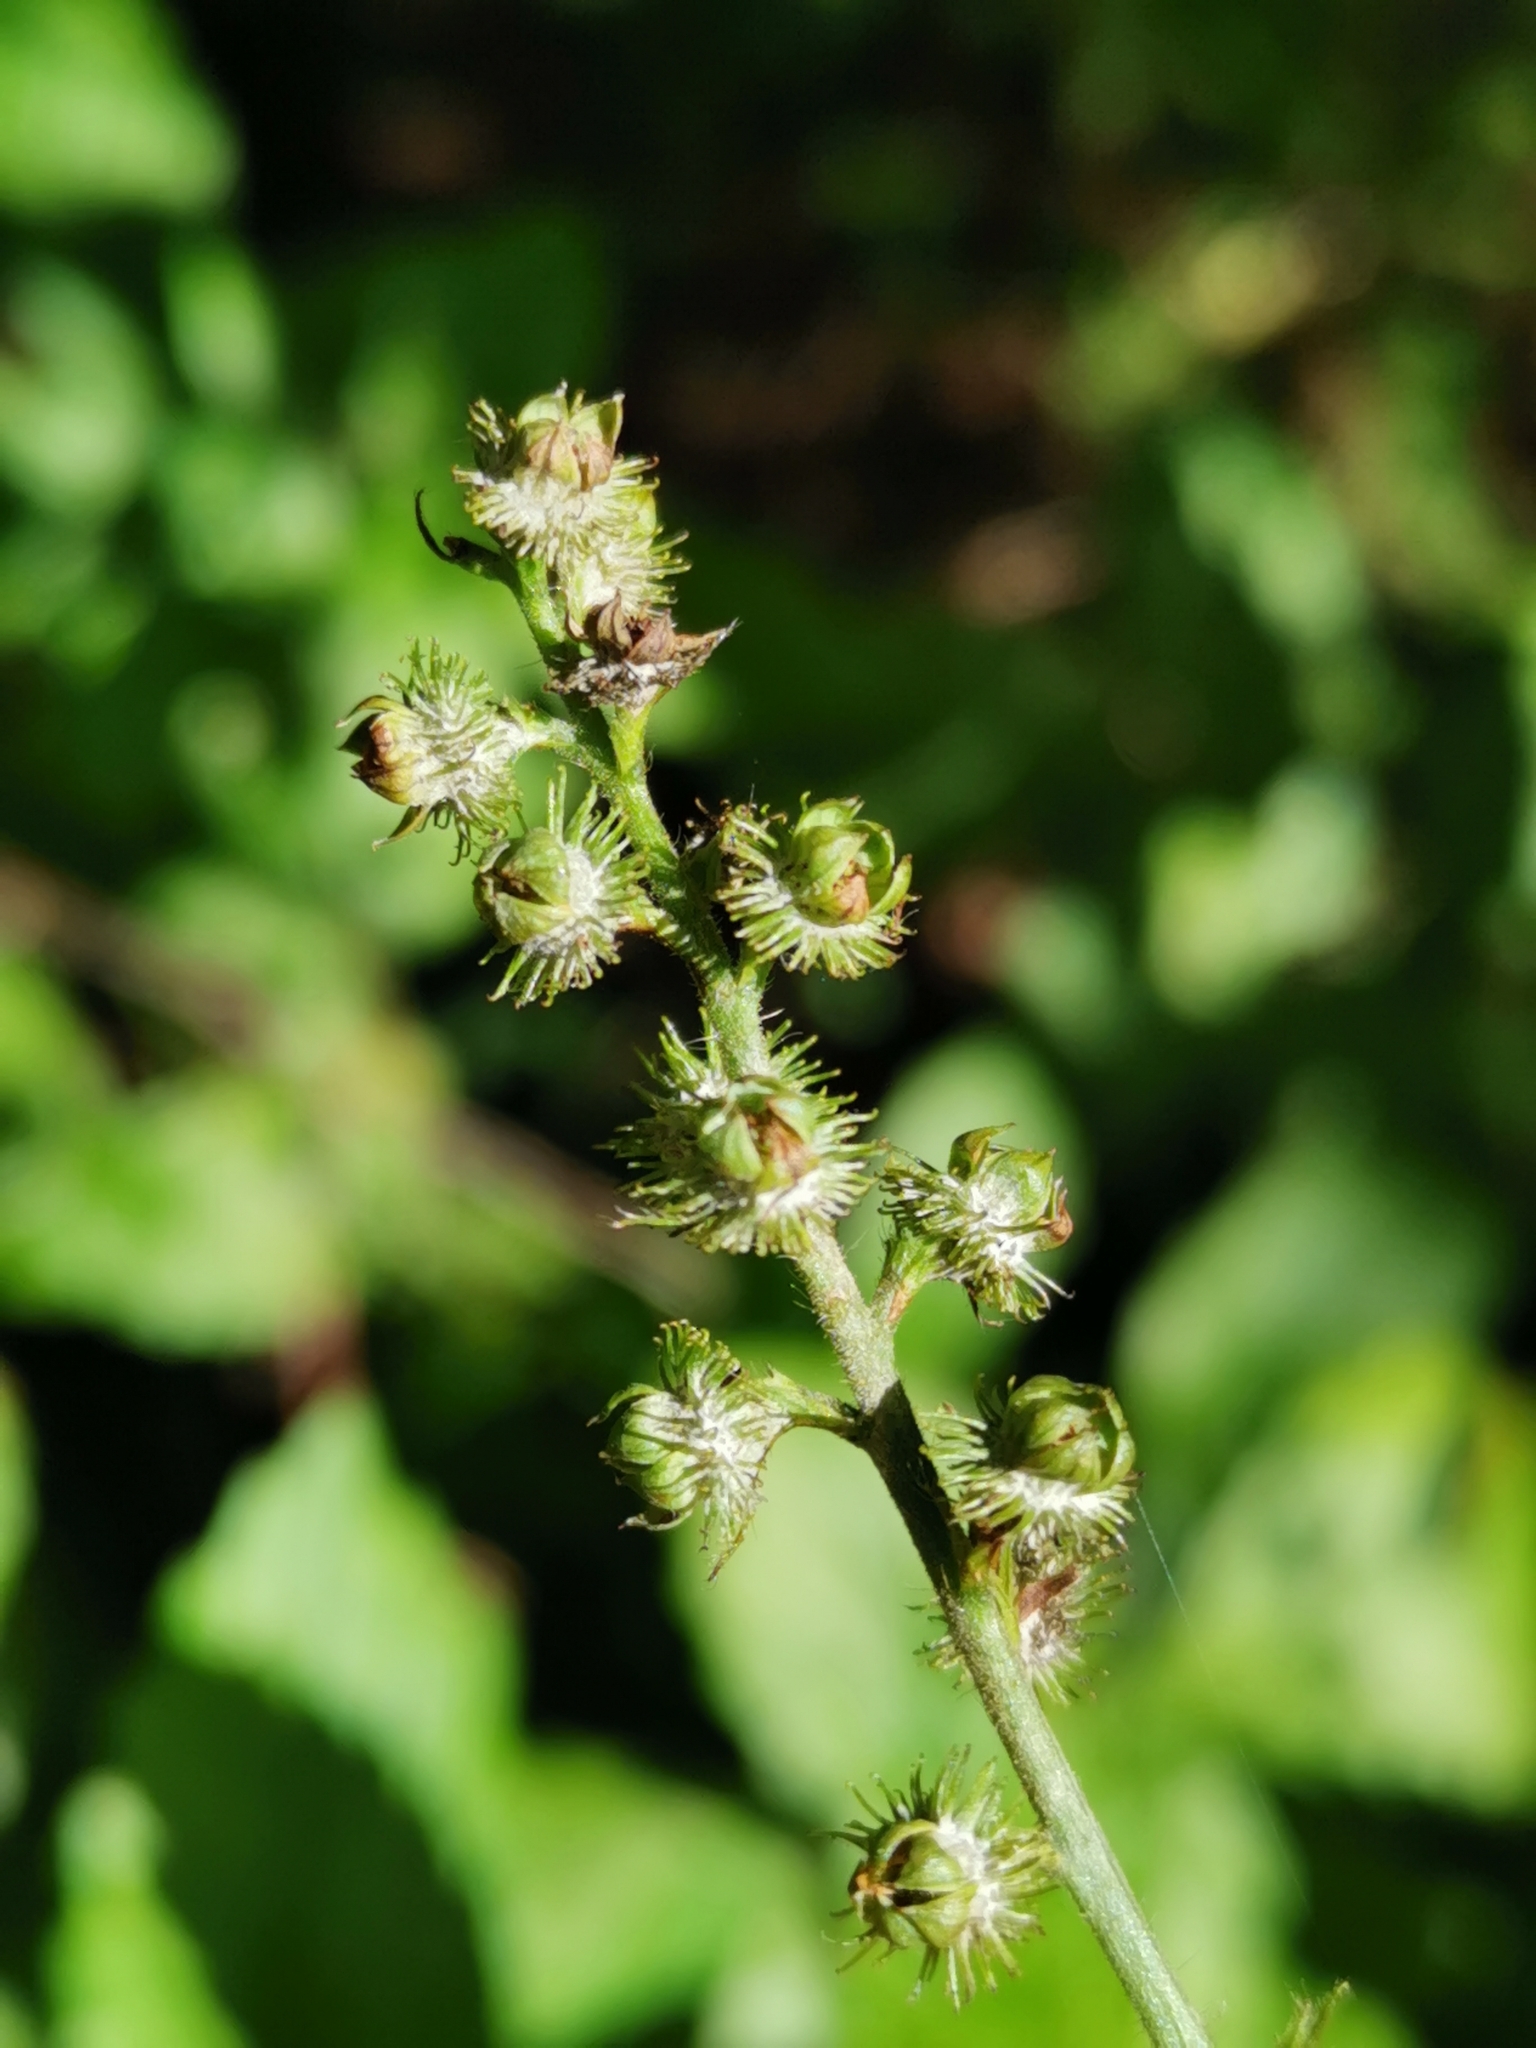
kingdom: Plantae
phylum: Tracheophyta
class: Magnoliopsida
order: Rosales
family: Rosaceae
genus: Agrimonia
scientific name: Agrimonia striata
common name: Britton's agrimony
